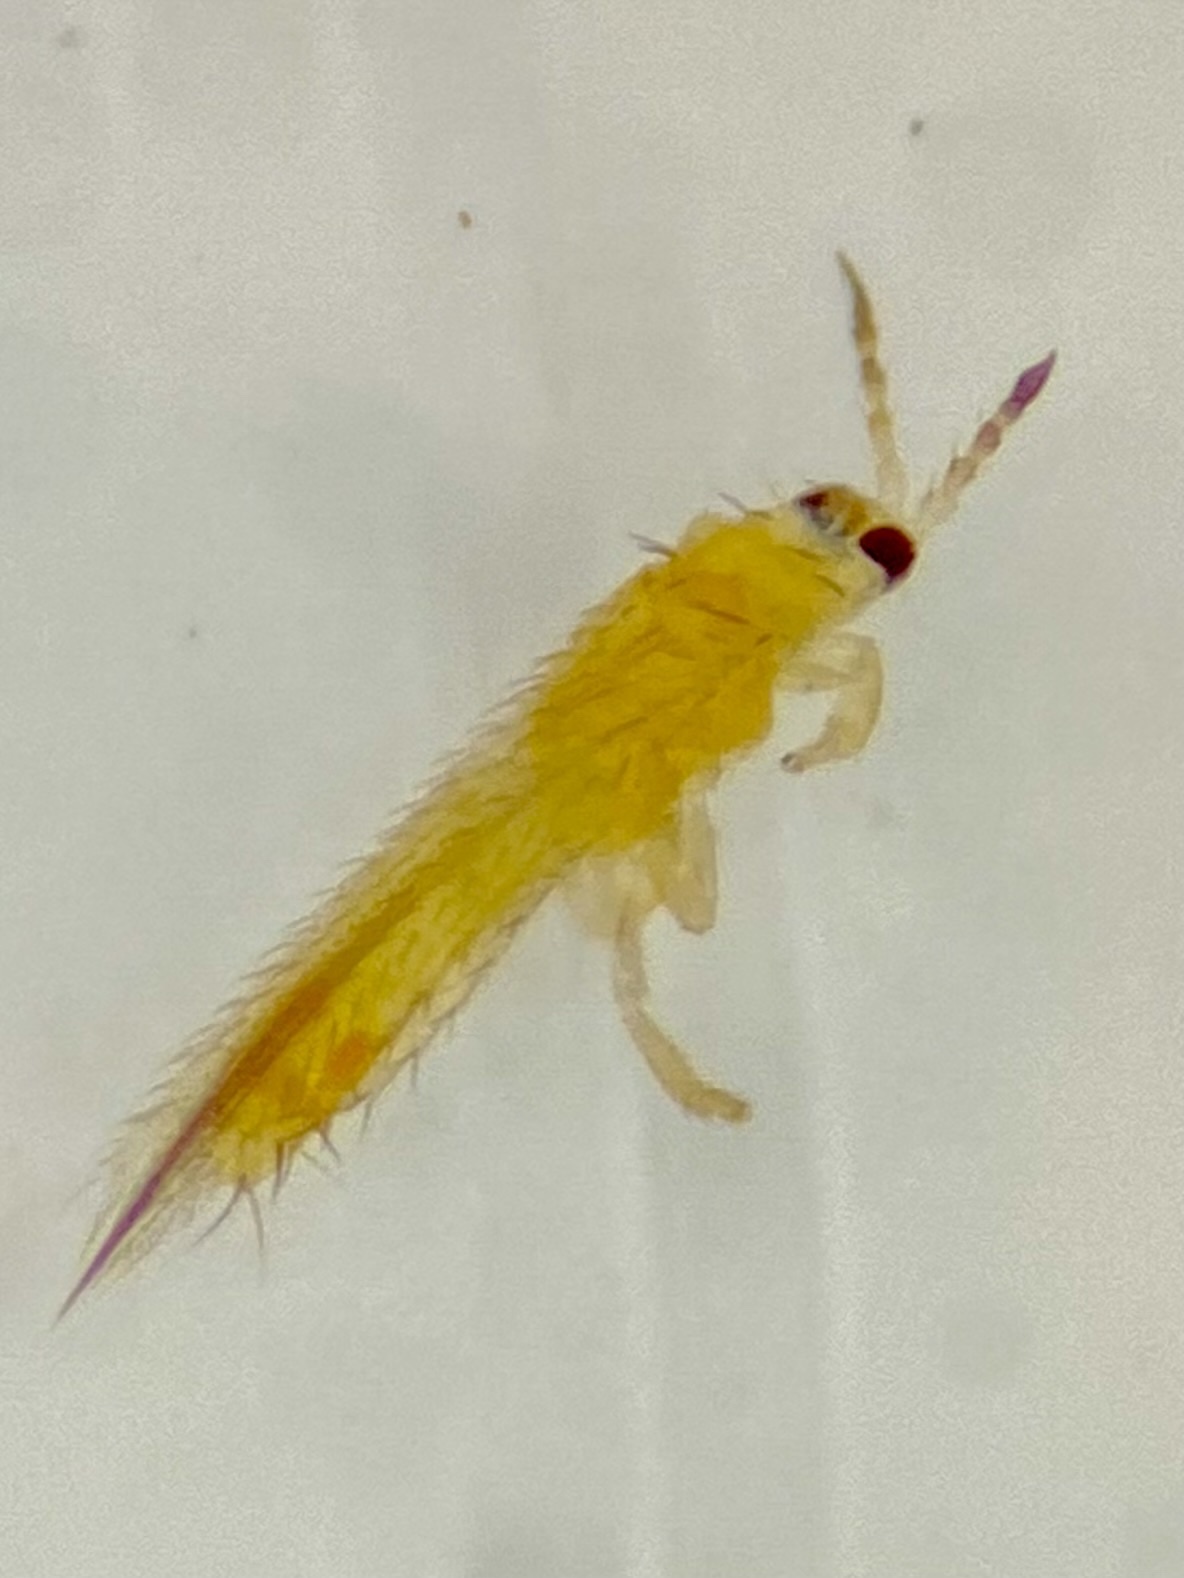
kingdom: Animalia
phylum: Arthropoda
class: Insecta
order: Thysanoptera
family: Thripidae
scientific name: Thripidae
